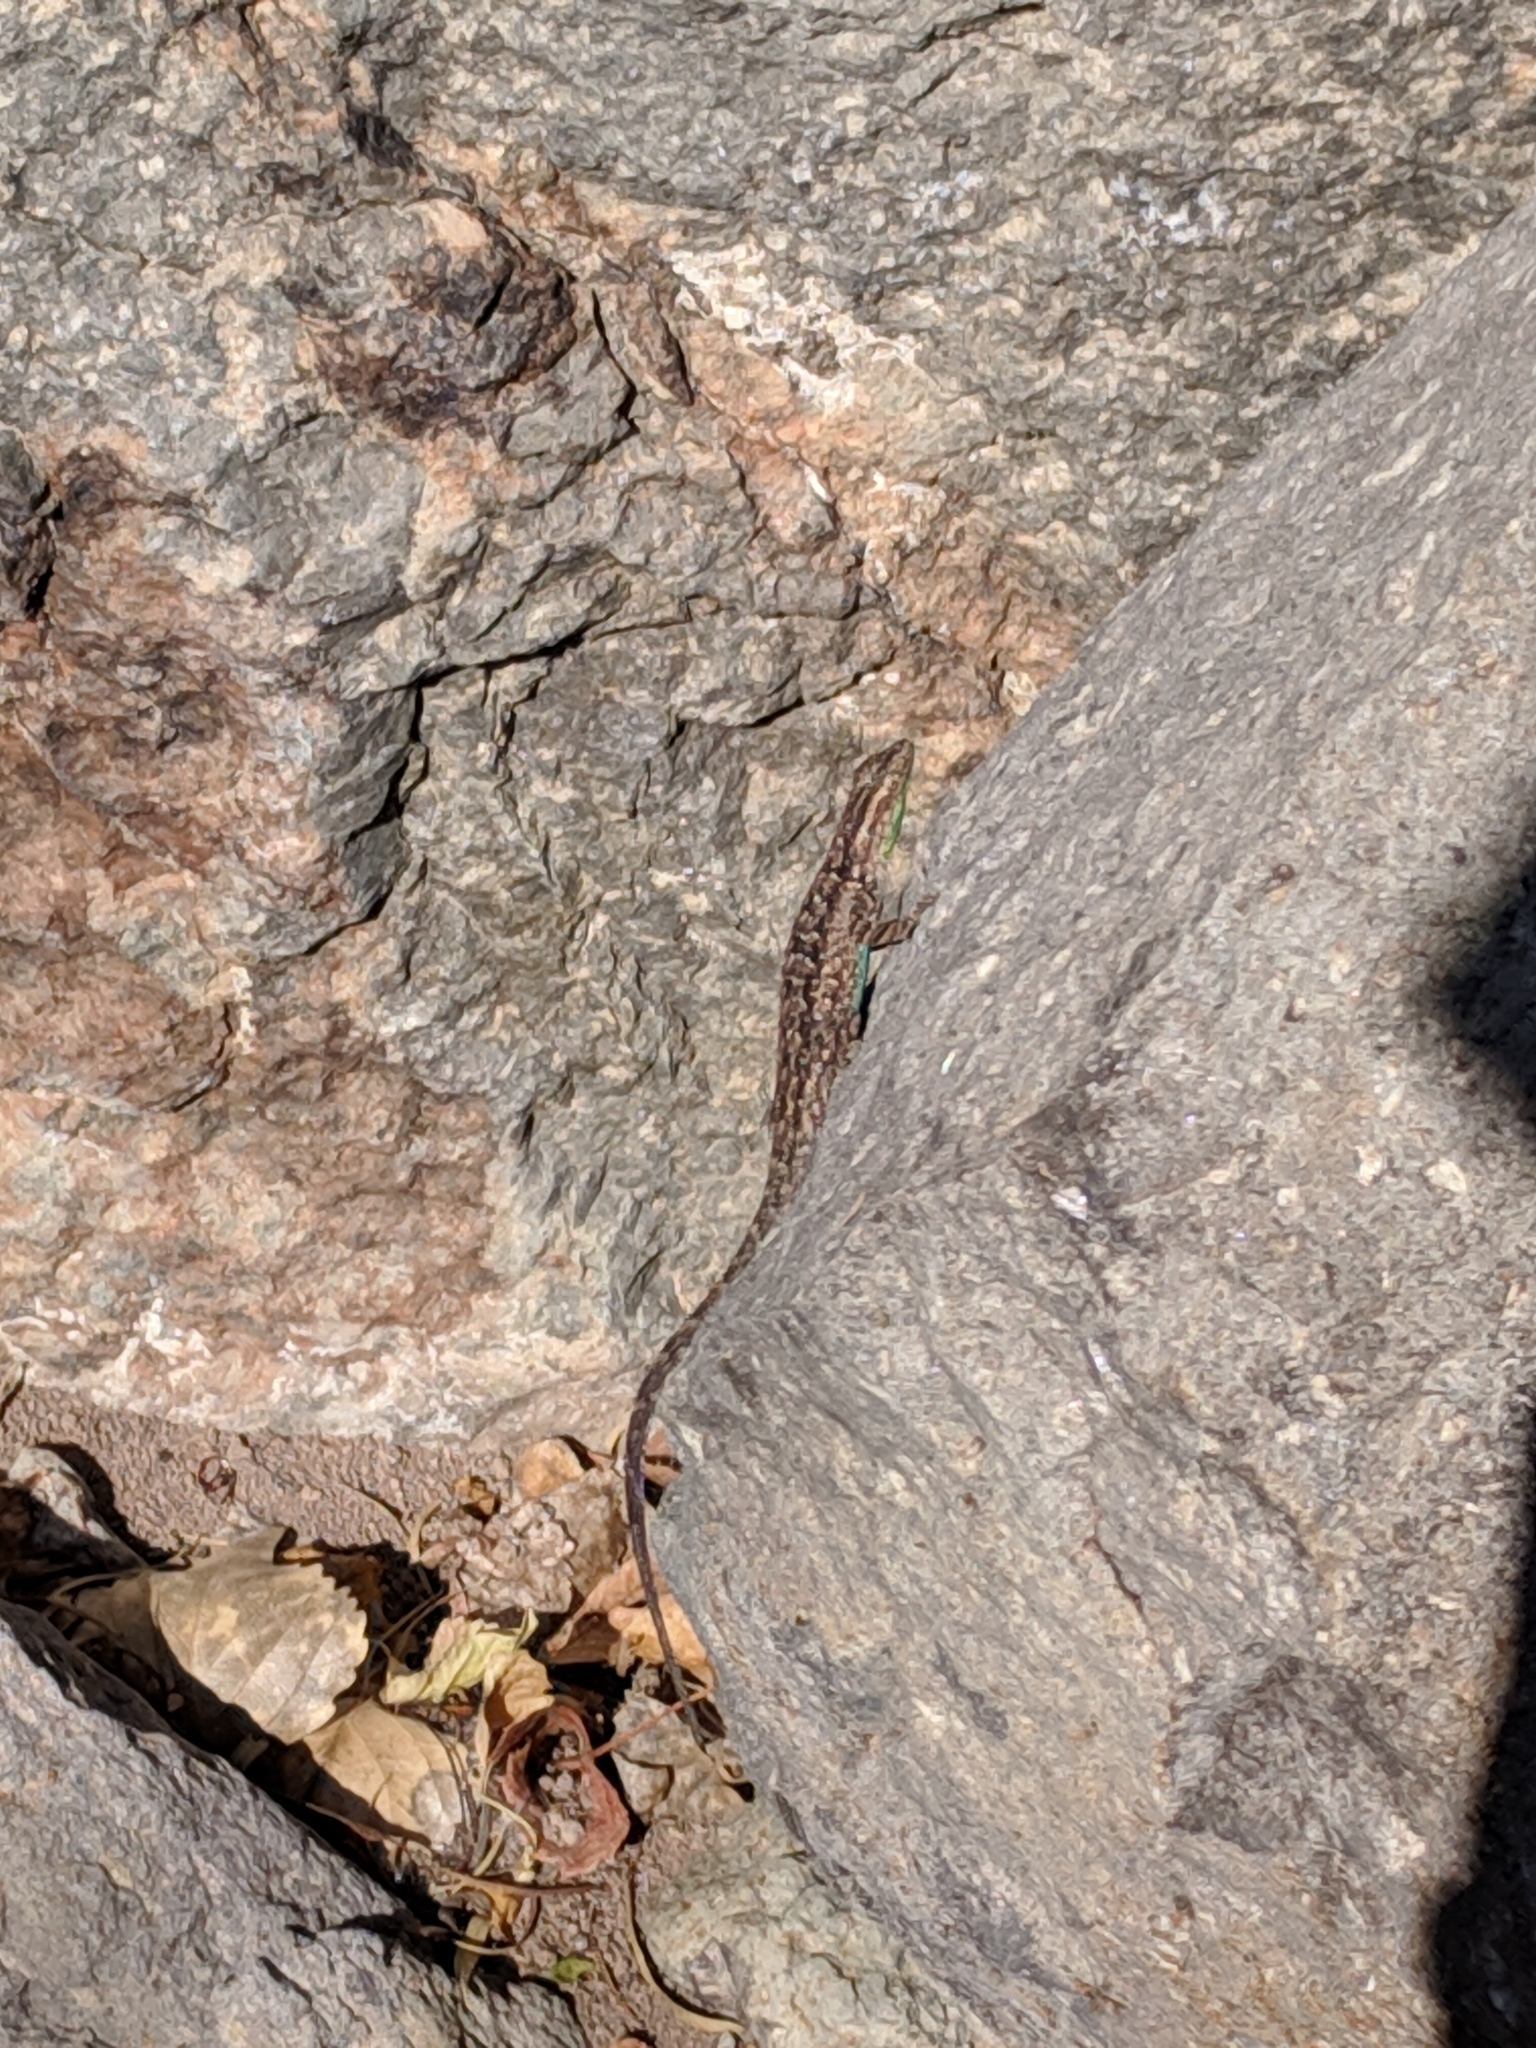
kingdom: Animalia
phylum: Chordata
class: Squamata
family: Phrynosomatidae
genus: Urosaurus
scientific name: Urosaurus ornatus
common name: Ornate tree lizard
